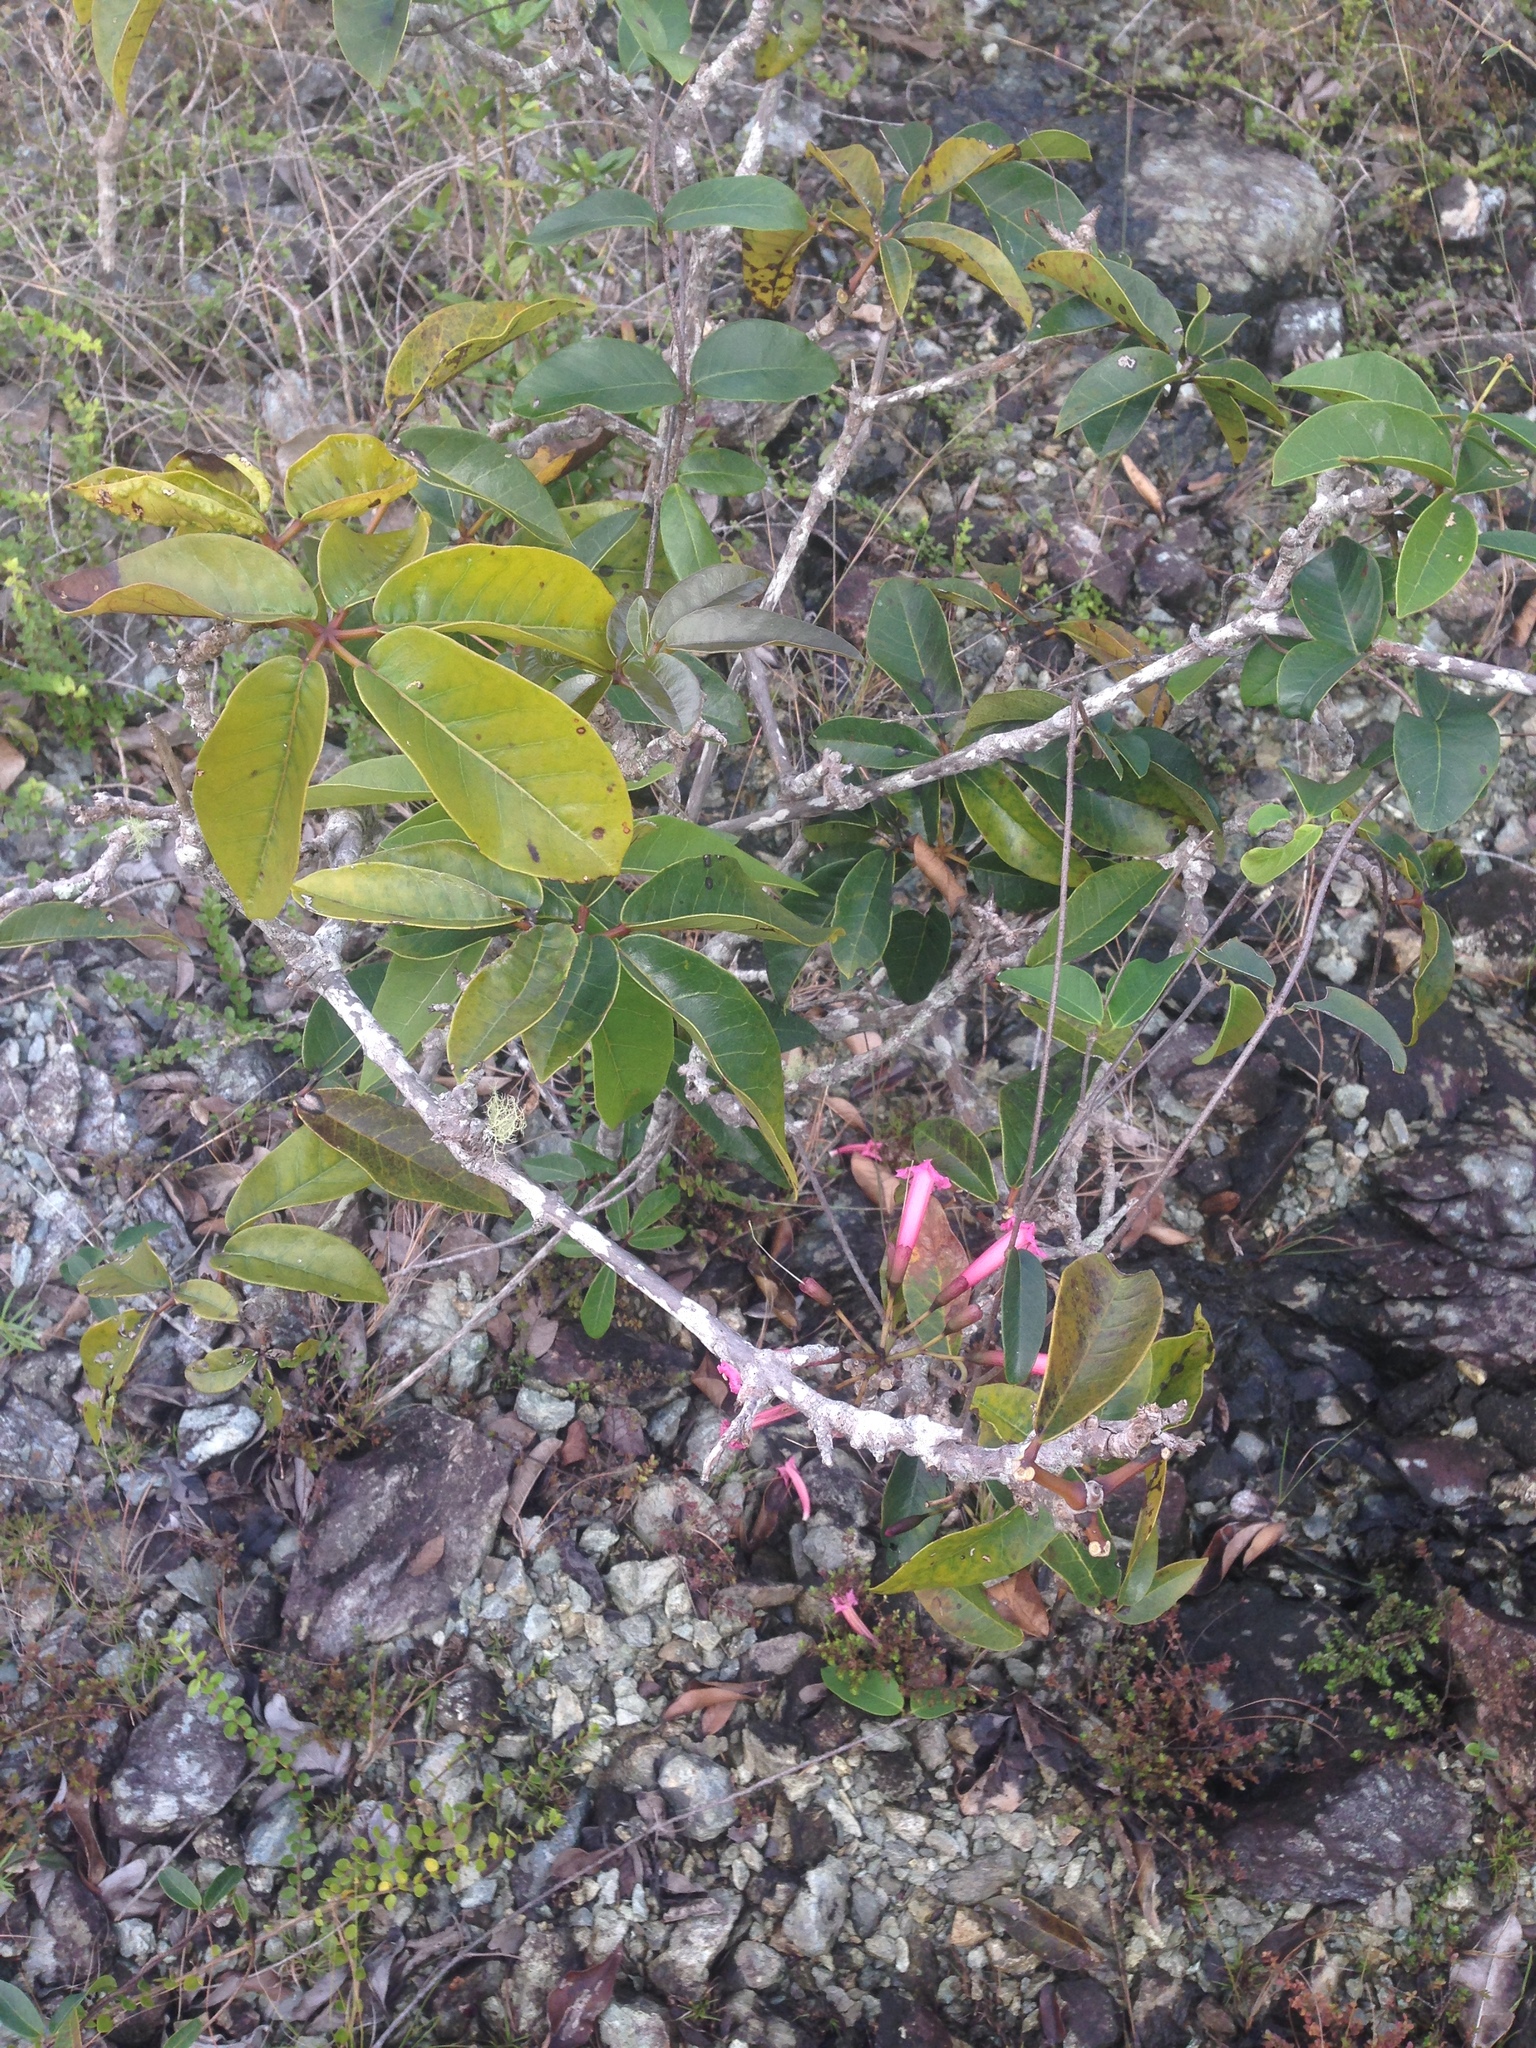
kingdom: Plantae
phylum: Tracheophyta
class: Magnoliopsida
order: Lamiales
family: Bignoniaceae
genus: Tabebuia
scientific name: Tabebuia haemantha
